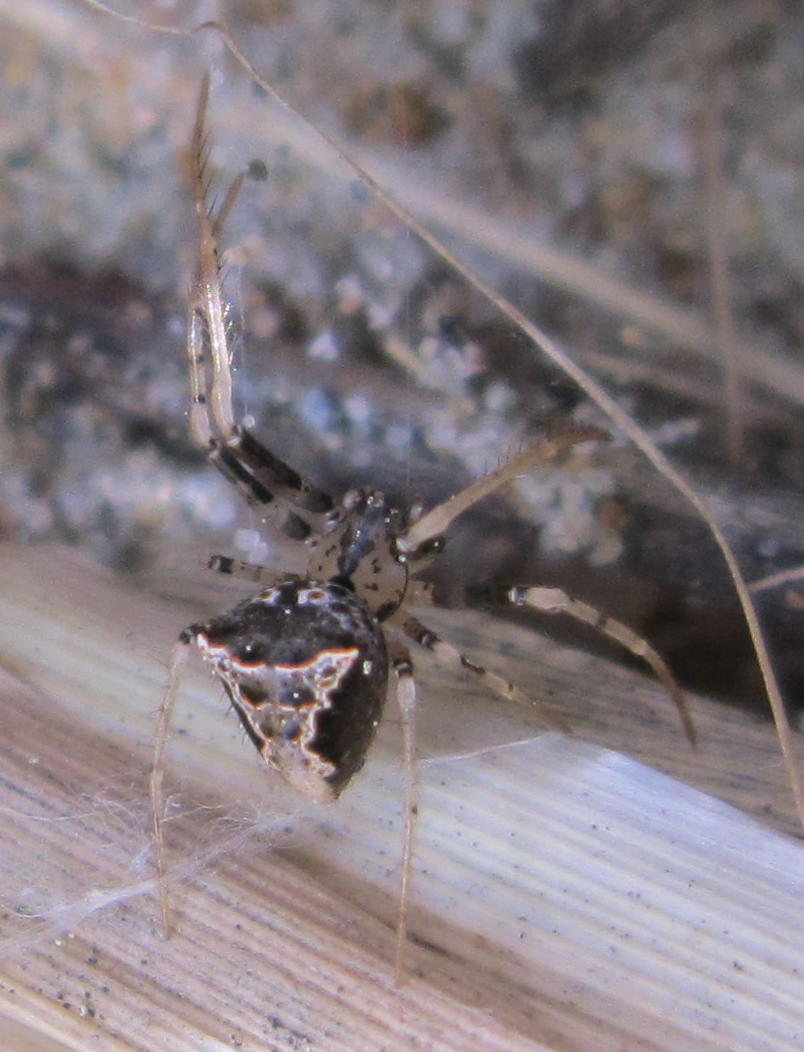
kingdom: Animalia
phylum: Arthropoda
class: Arachnida
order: Araneae
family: Mimetidae
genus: Australomimetus
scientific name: Australomimetus hartleyensis
